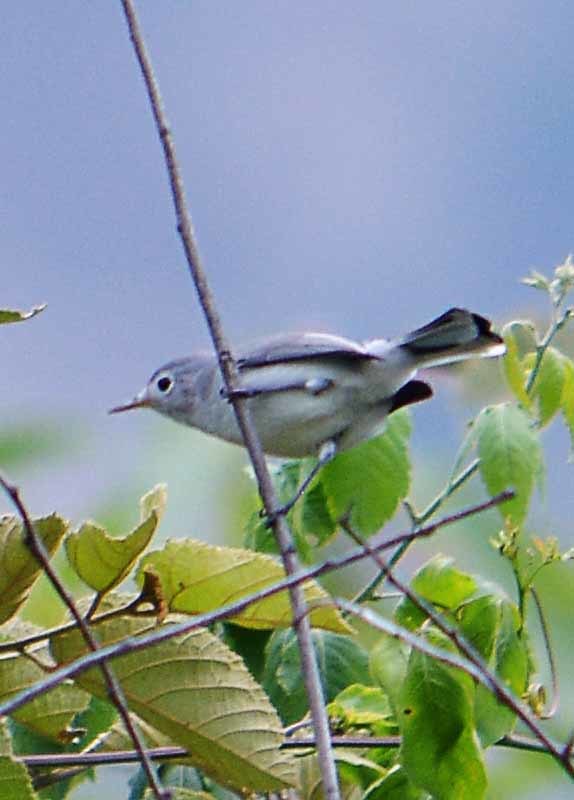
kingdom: Animalia
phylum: Chordata
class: Aves
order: Passeriformes
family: Polioptilidae
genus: Polioptila
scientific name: Polioptila caerulea
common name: Blue-gray gnatcatcher
